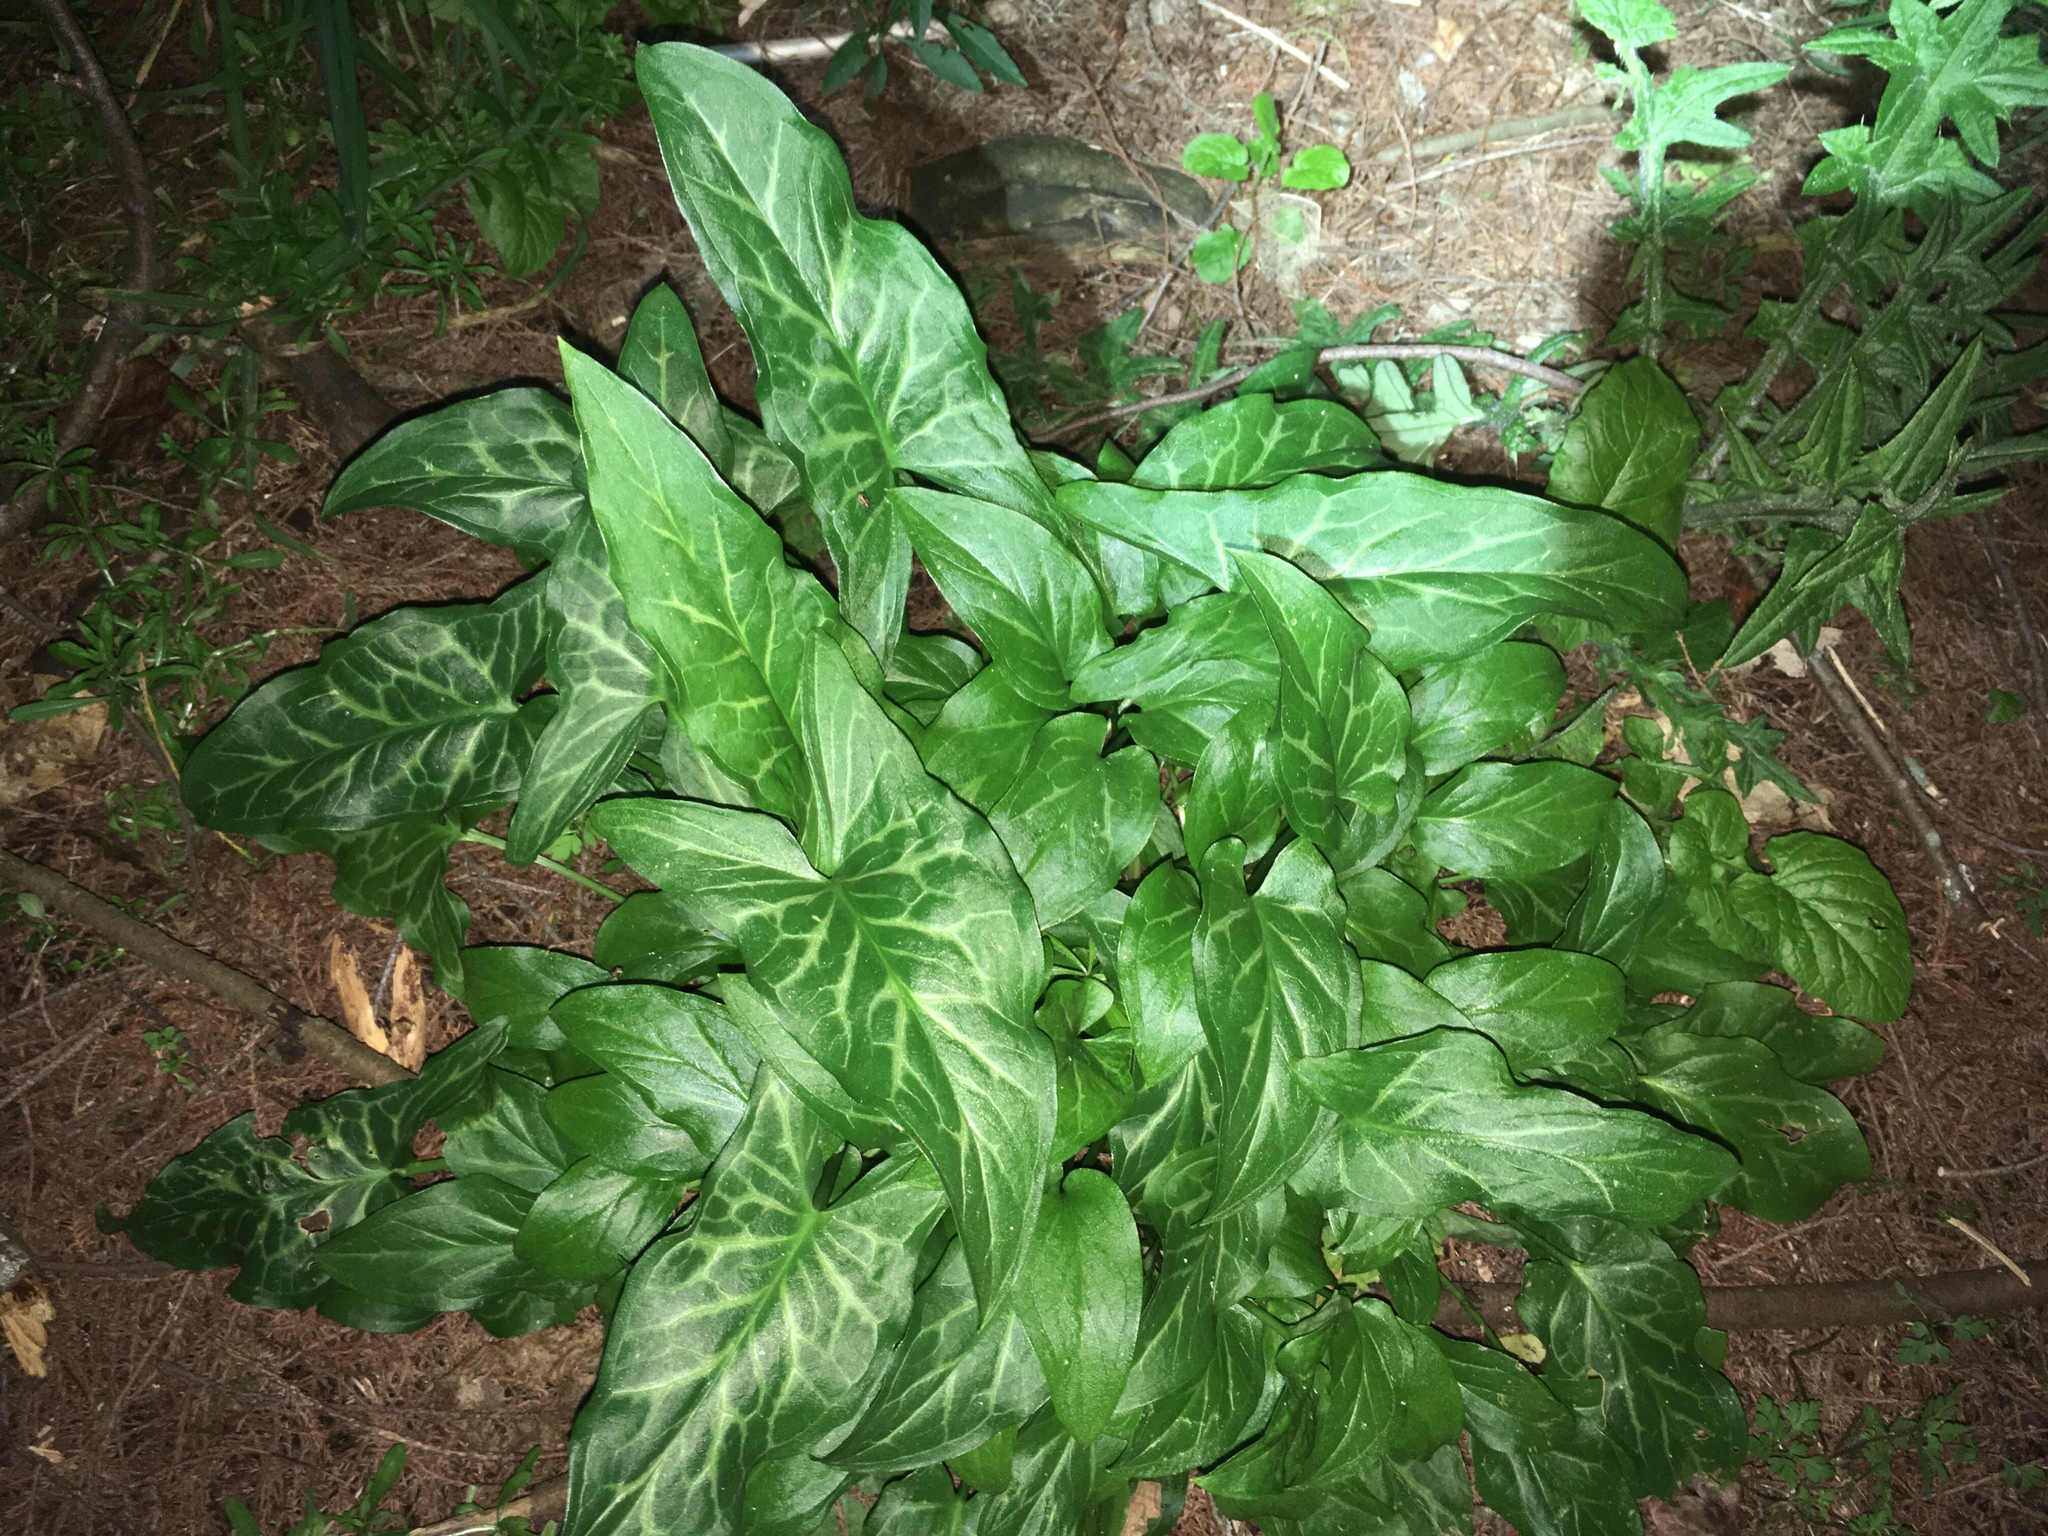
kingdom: Plantae
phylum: Tracheophyta
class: Liliopsida
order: Alismatales
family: Araceae
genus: Arum
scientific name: Arum italicum
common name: Italian lords-and-ladies
